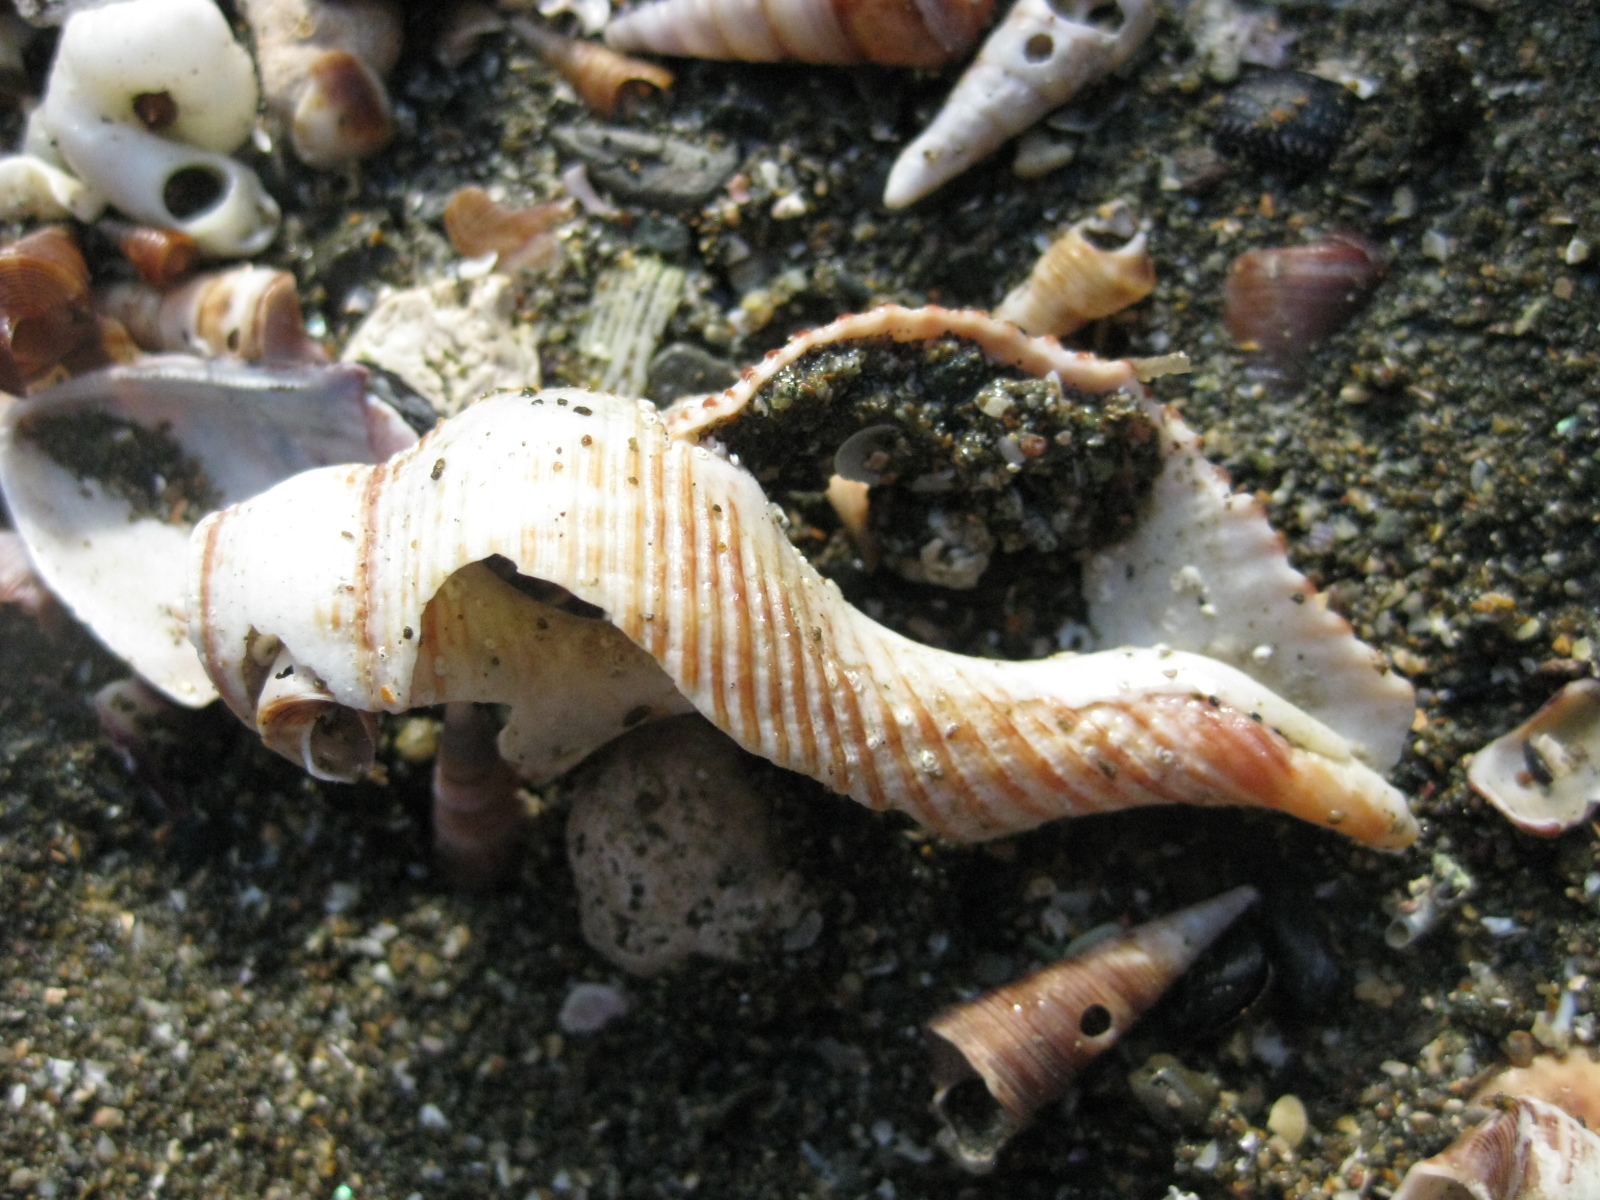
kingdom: Animalia
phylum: Mollusca
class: Gastropoda
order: Neogastropoda
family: Austrosiphonidae
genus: Penion
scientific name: Penion sulcatus
